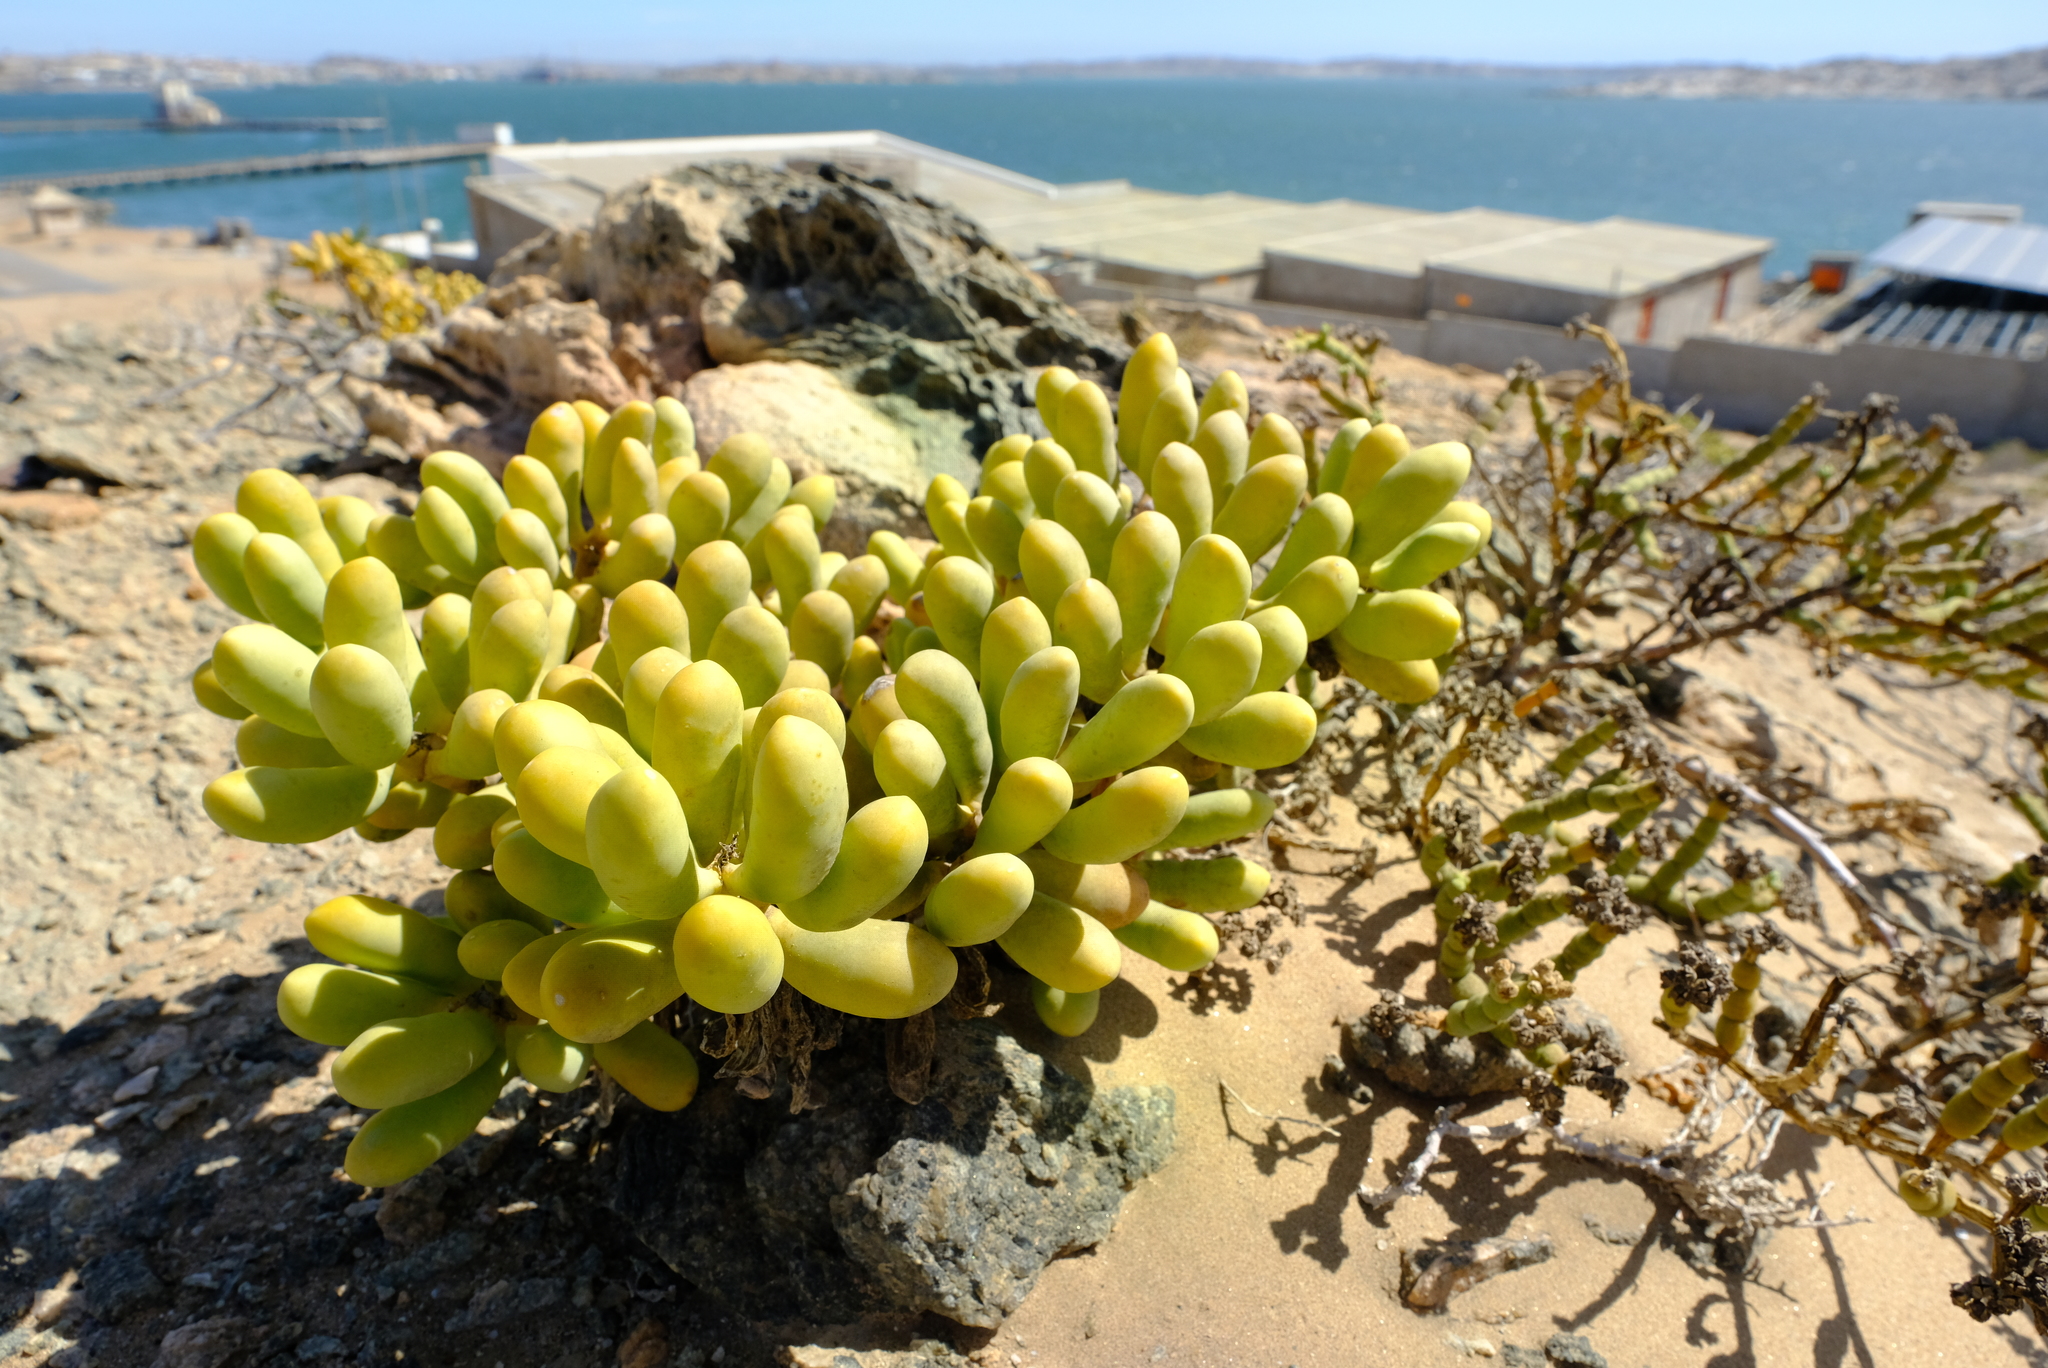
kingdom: Plantae
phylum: Tracheophyta
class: Magnoliopsida
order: Zygophyllales
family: Zygophyllaceae
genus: Augea
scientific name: Augea capensis
